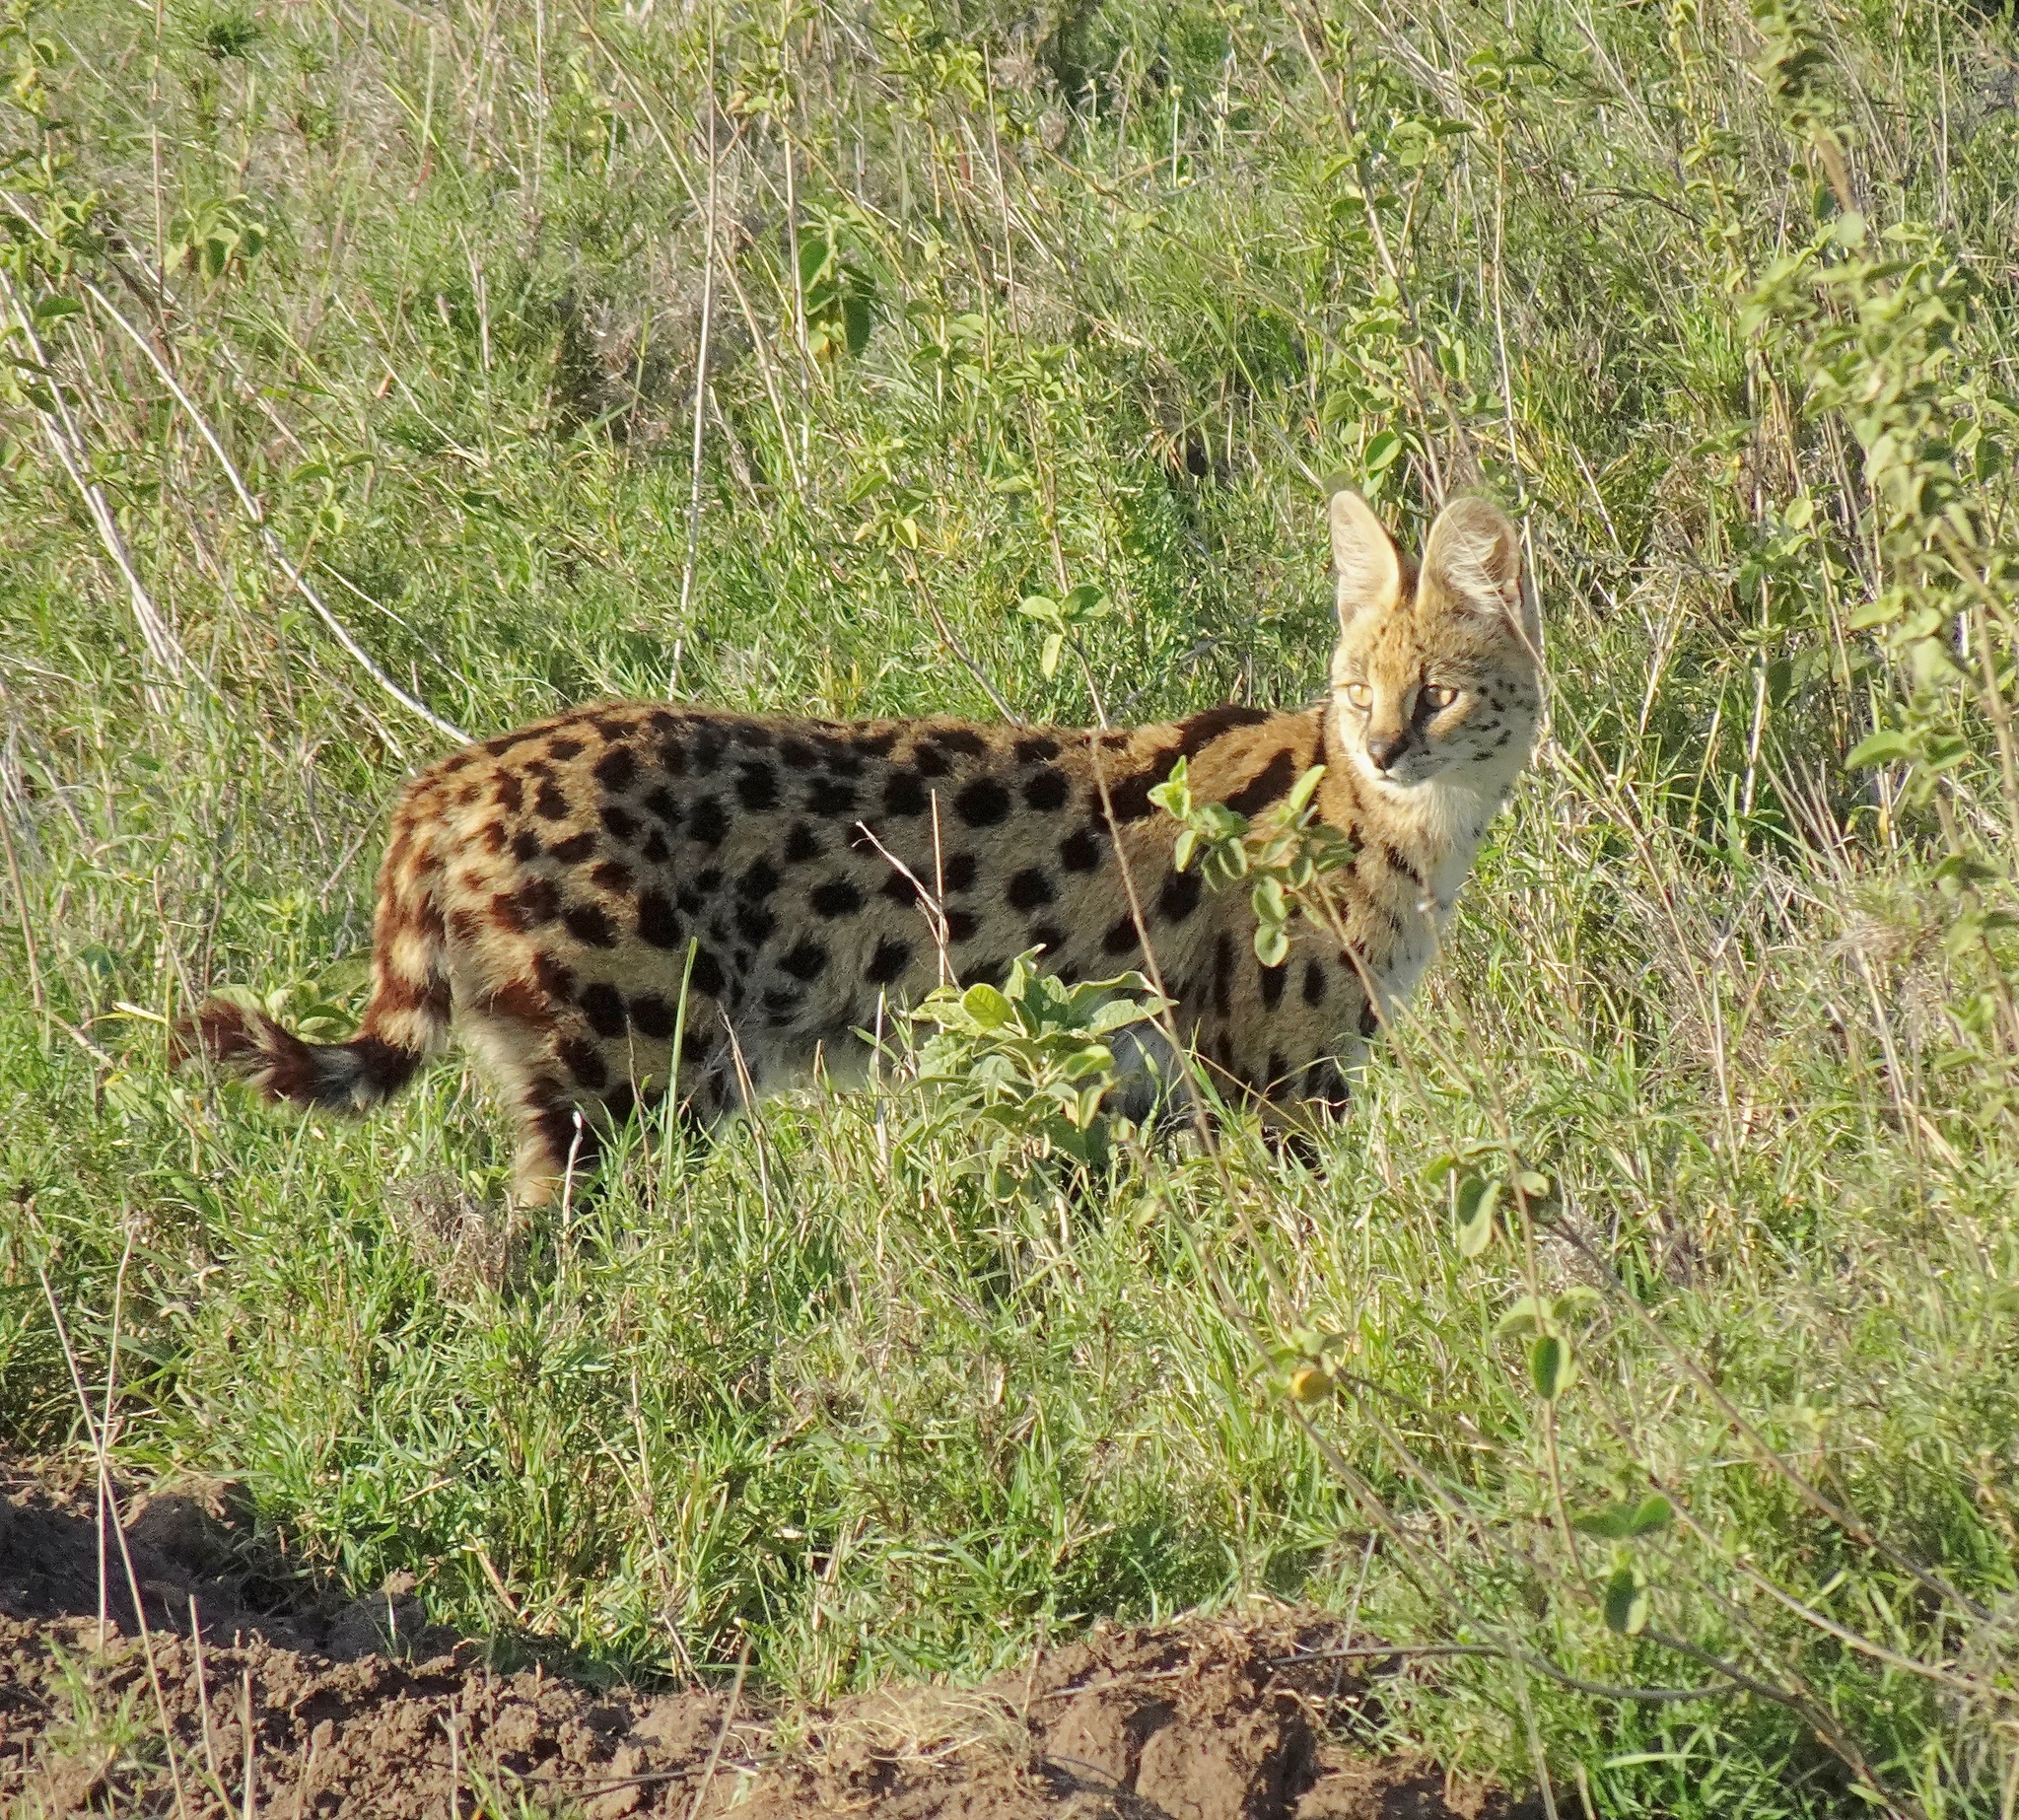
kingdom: Animalia
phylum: Chordata
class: Mammalia
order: Carnivora
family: Felidae
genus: Leptailurus
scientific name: Leptailurus serval
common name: Serval
